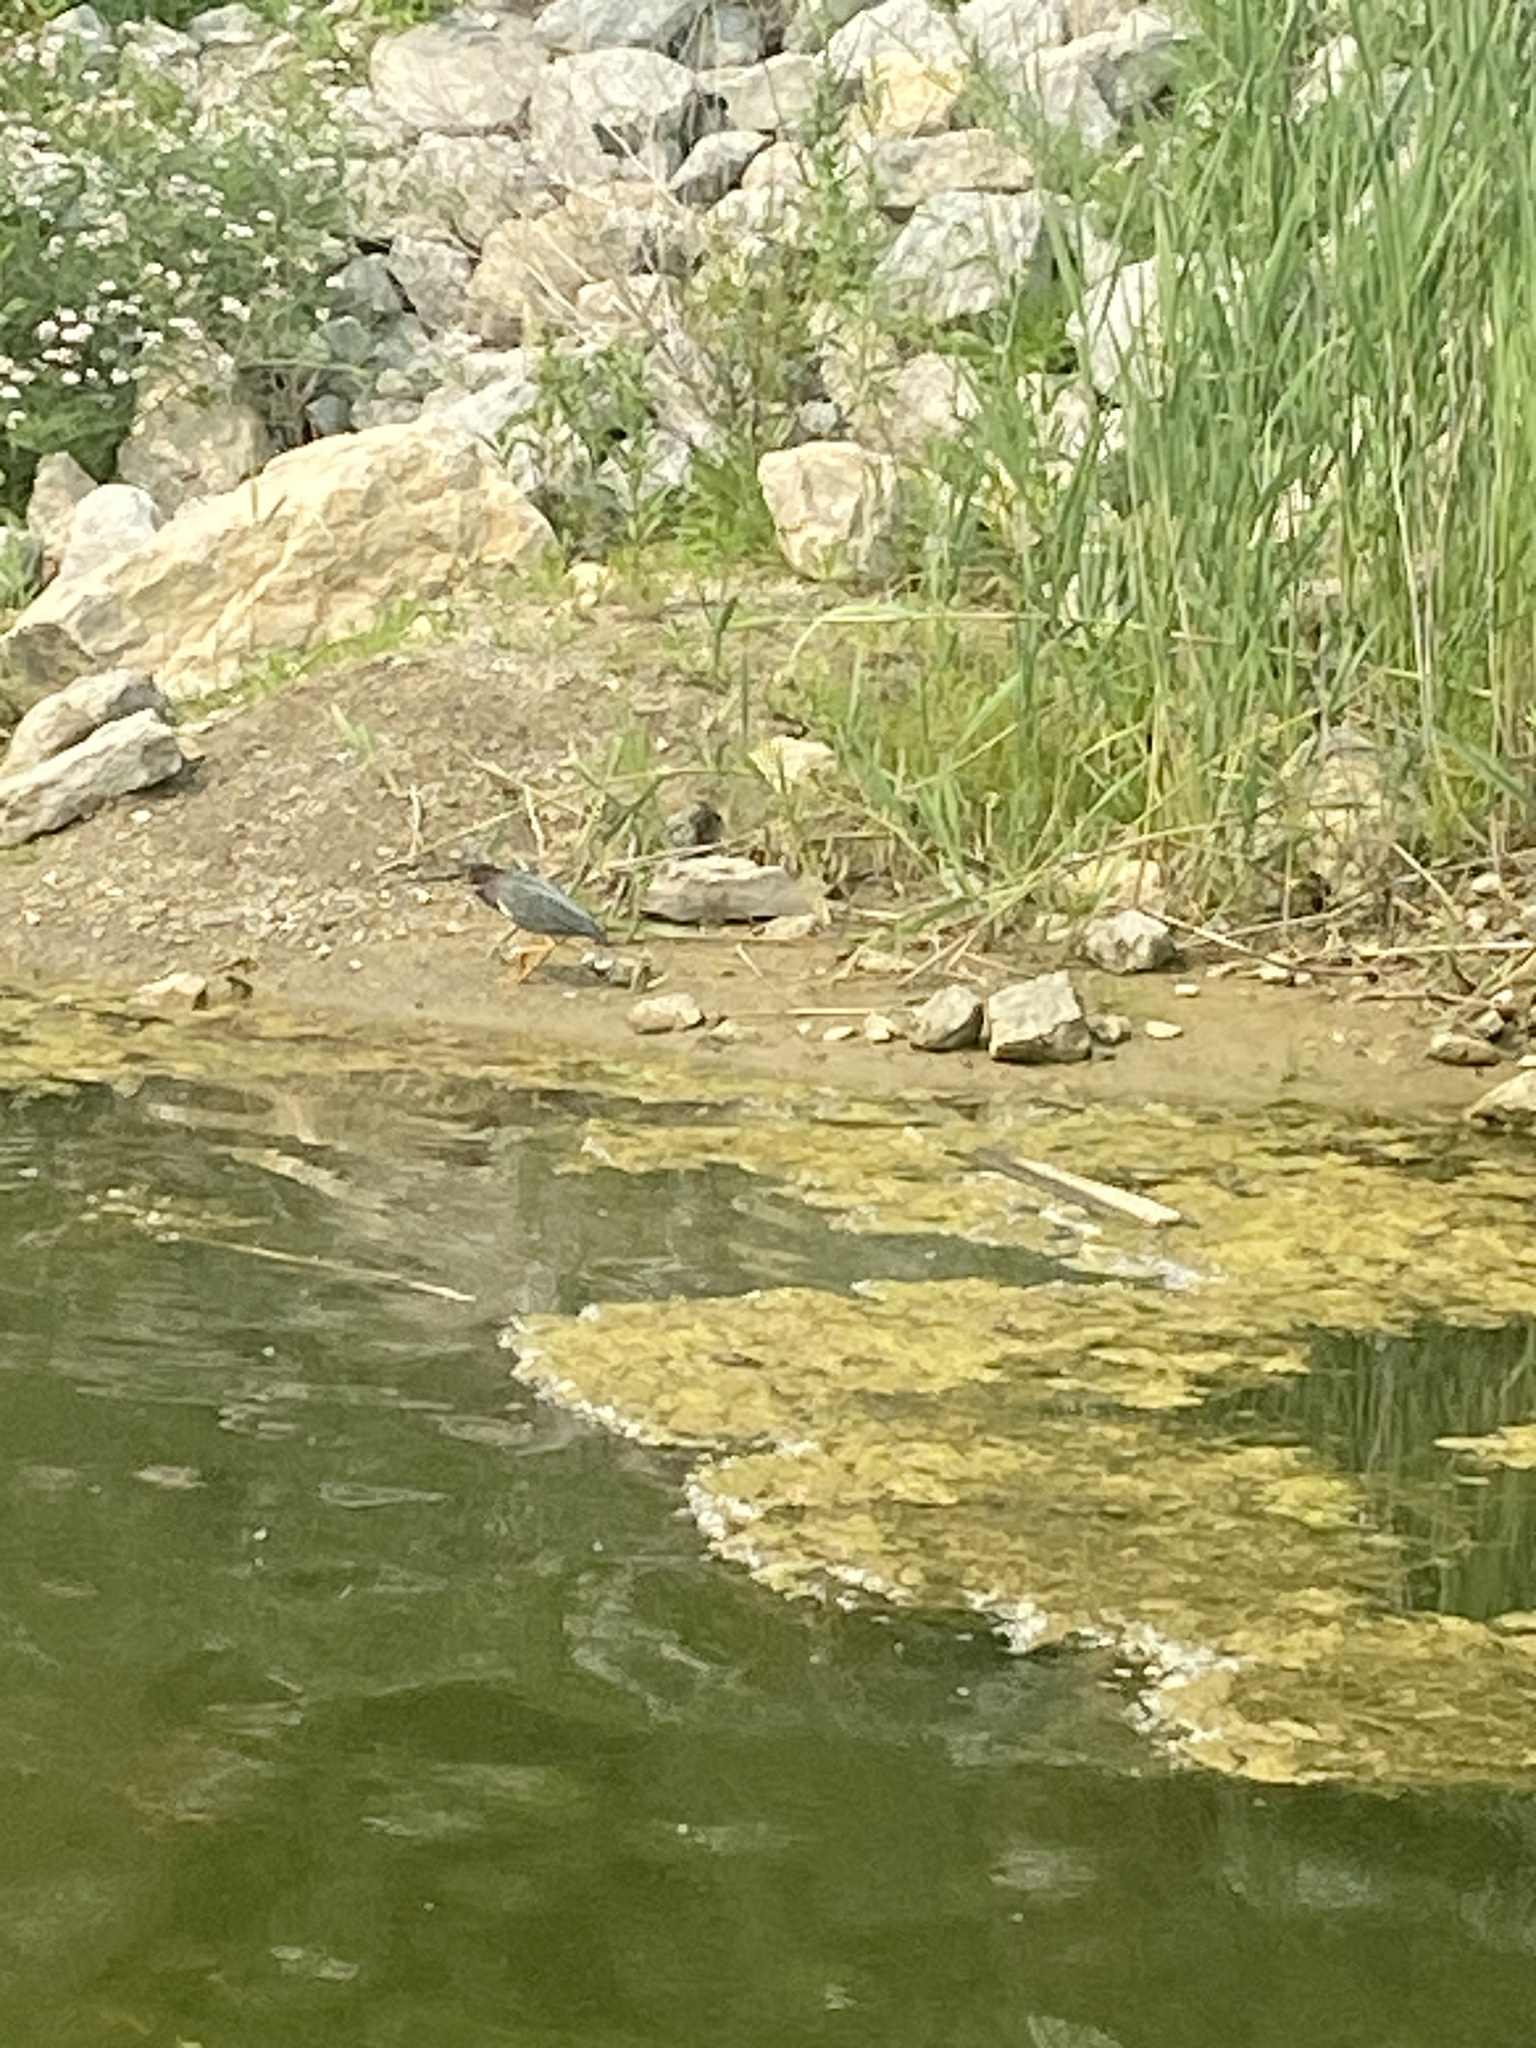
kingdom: Animalia
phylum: Chordata
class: Aves
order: Pelecaniformes
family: Ardeidae
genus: Butorides
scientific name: Butorides virescens
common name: Green heron
